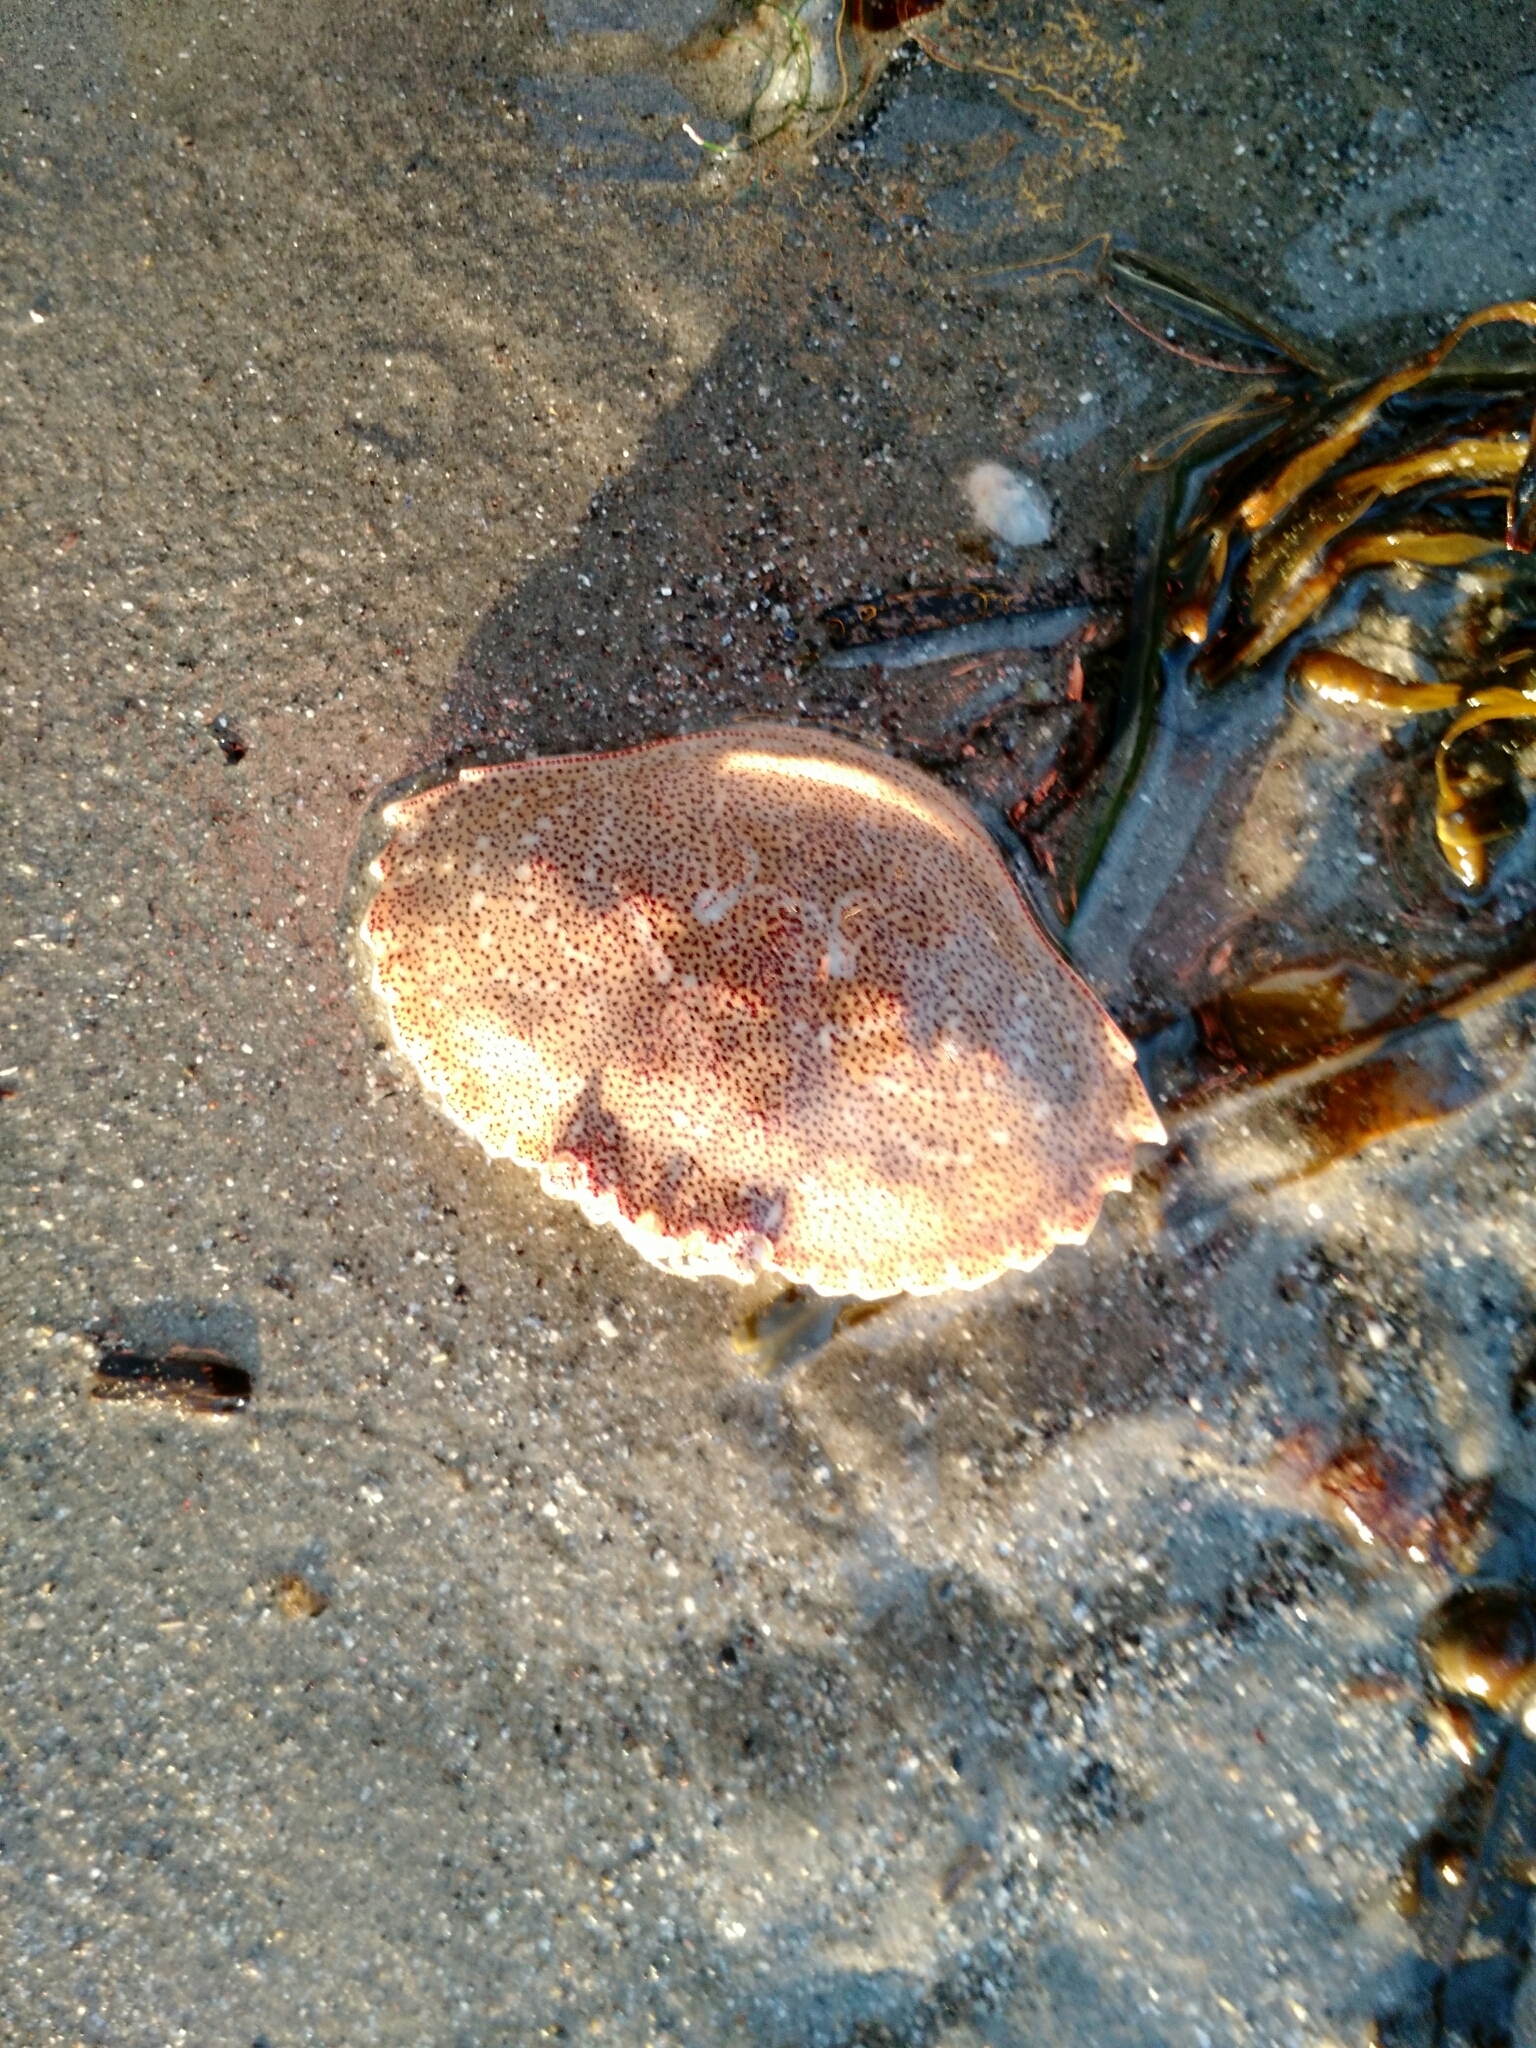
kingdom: Animalia
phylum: Arthropoda
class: Malacostraca
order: Decapoda
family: Cancridae
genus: Cancer
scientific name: Cancer irroratus
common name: Atlantic rock crab
